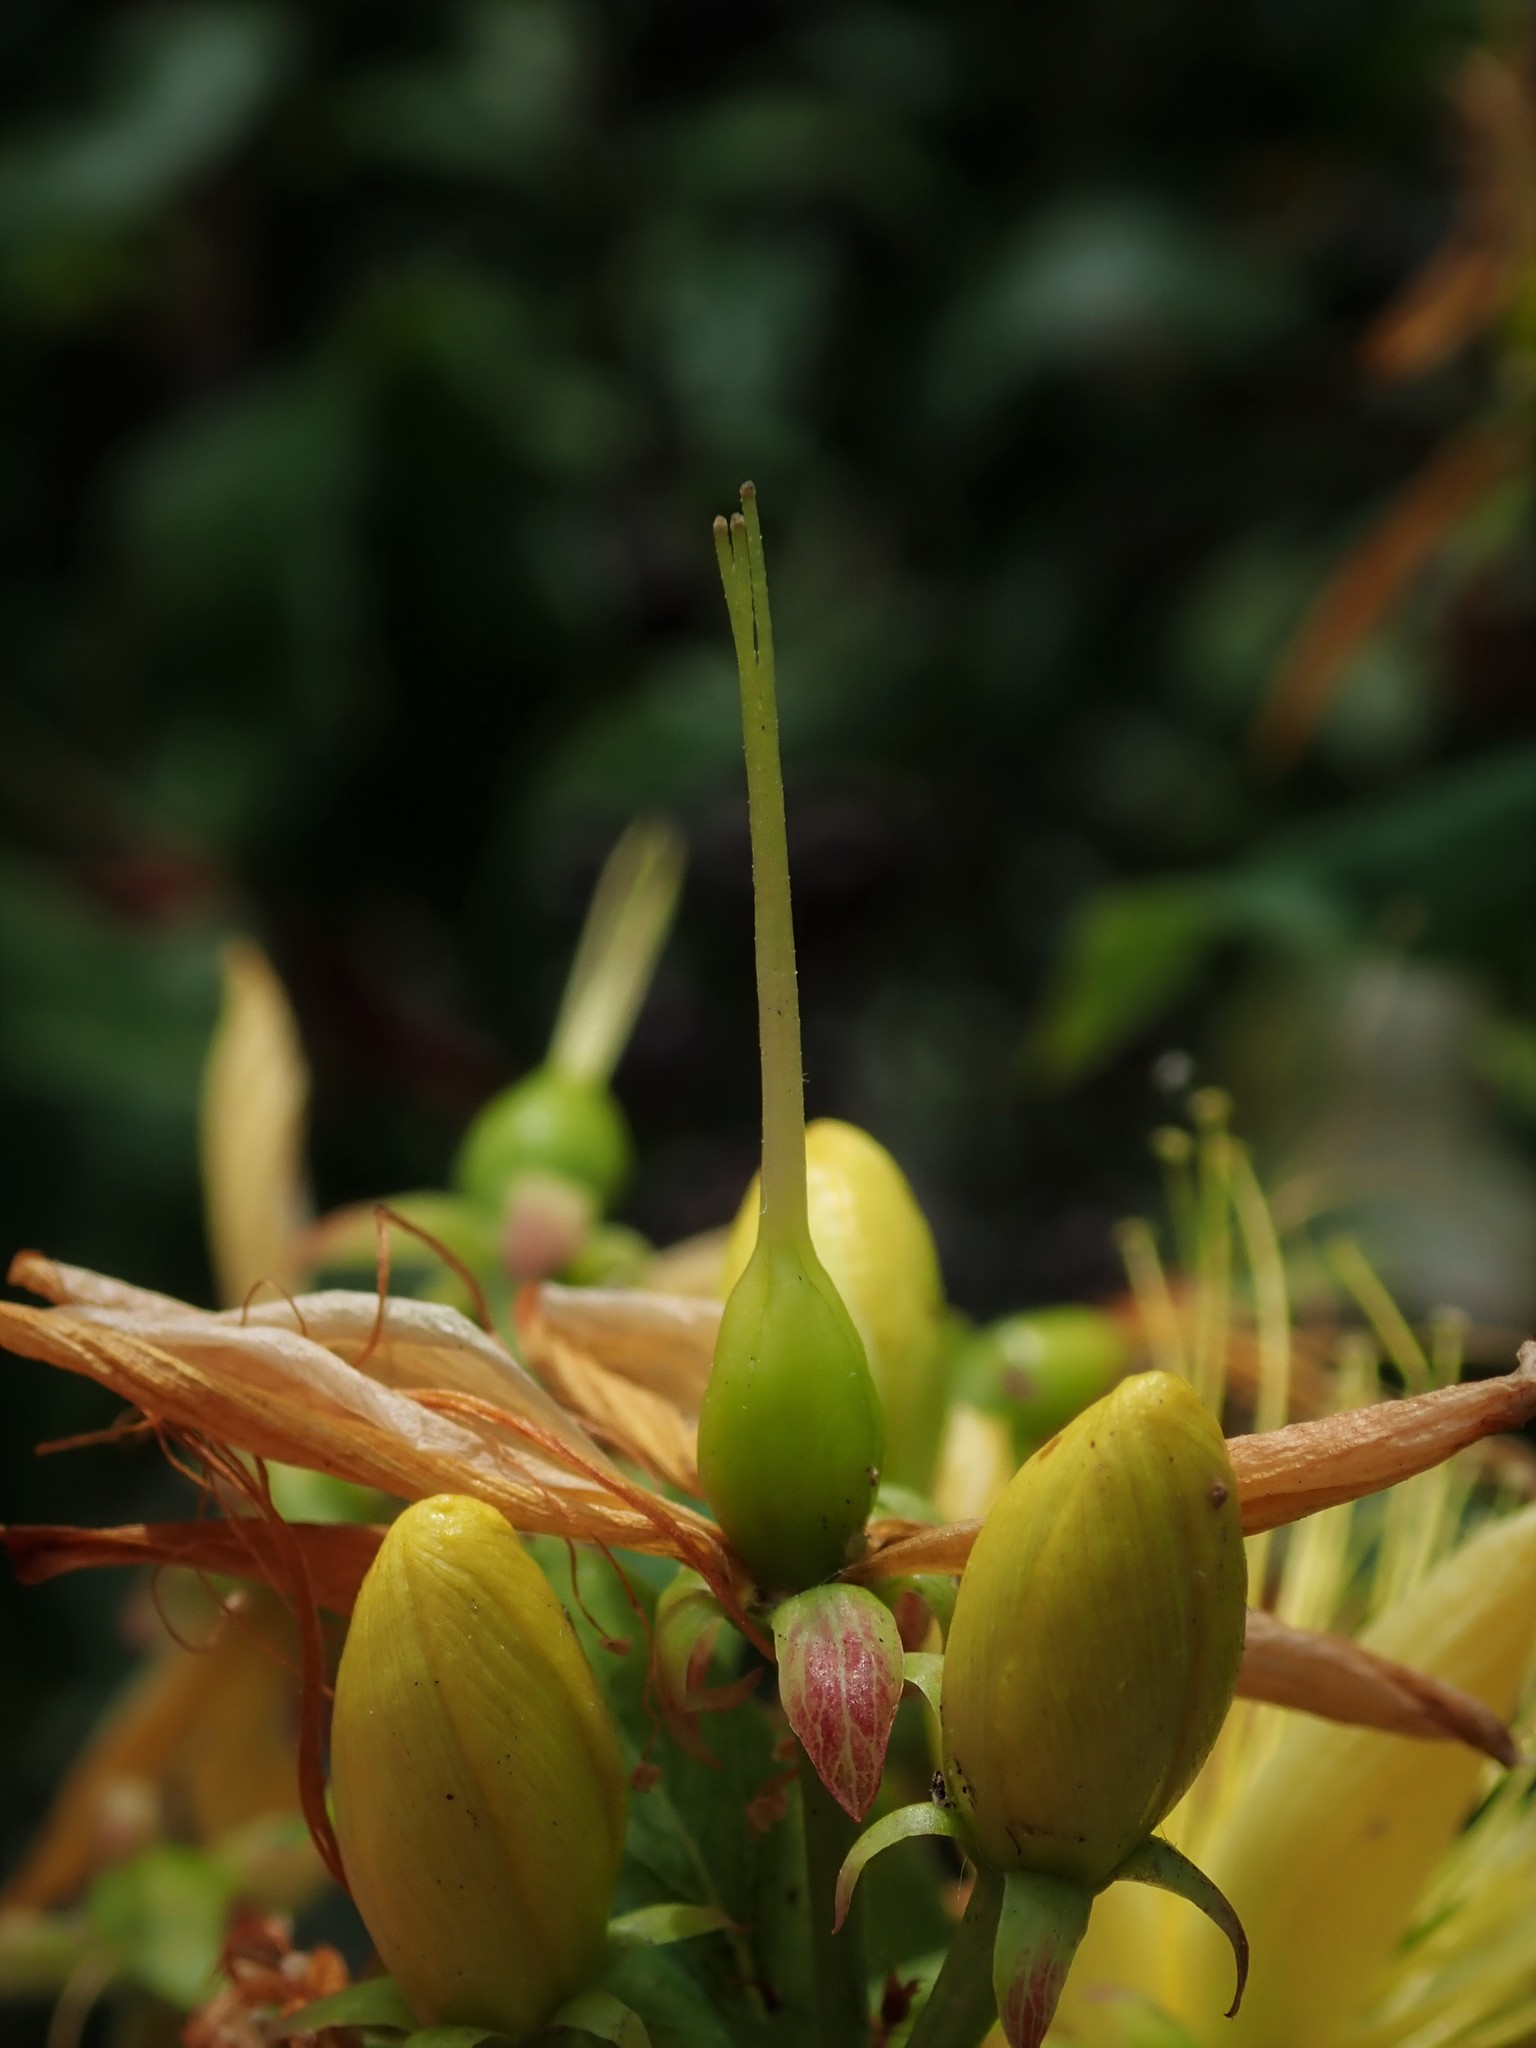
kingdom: Plantae
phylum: Tracheophyta
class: Magnoliopsida
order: Malpighiales
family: Hypericaceae
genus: Hypericum
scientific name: Hypericum hircinum
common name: Stinking tutsan
